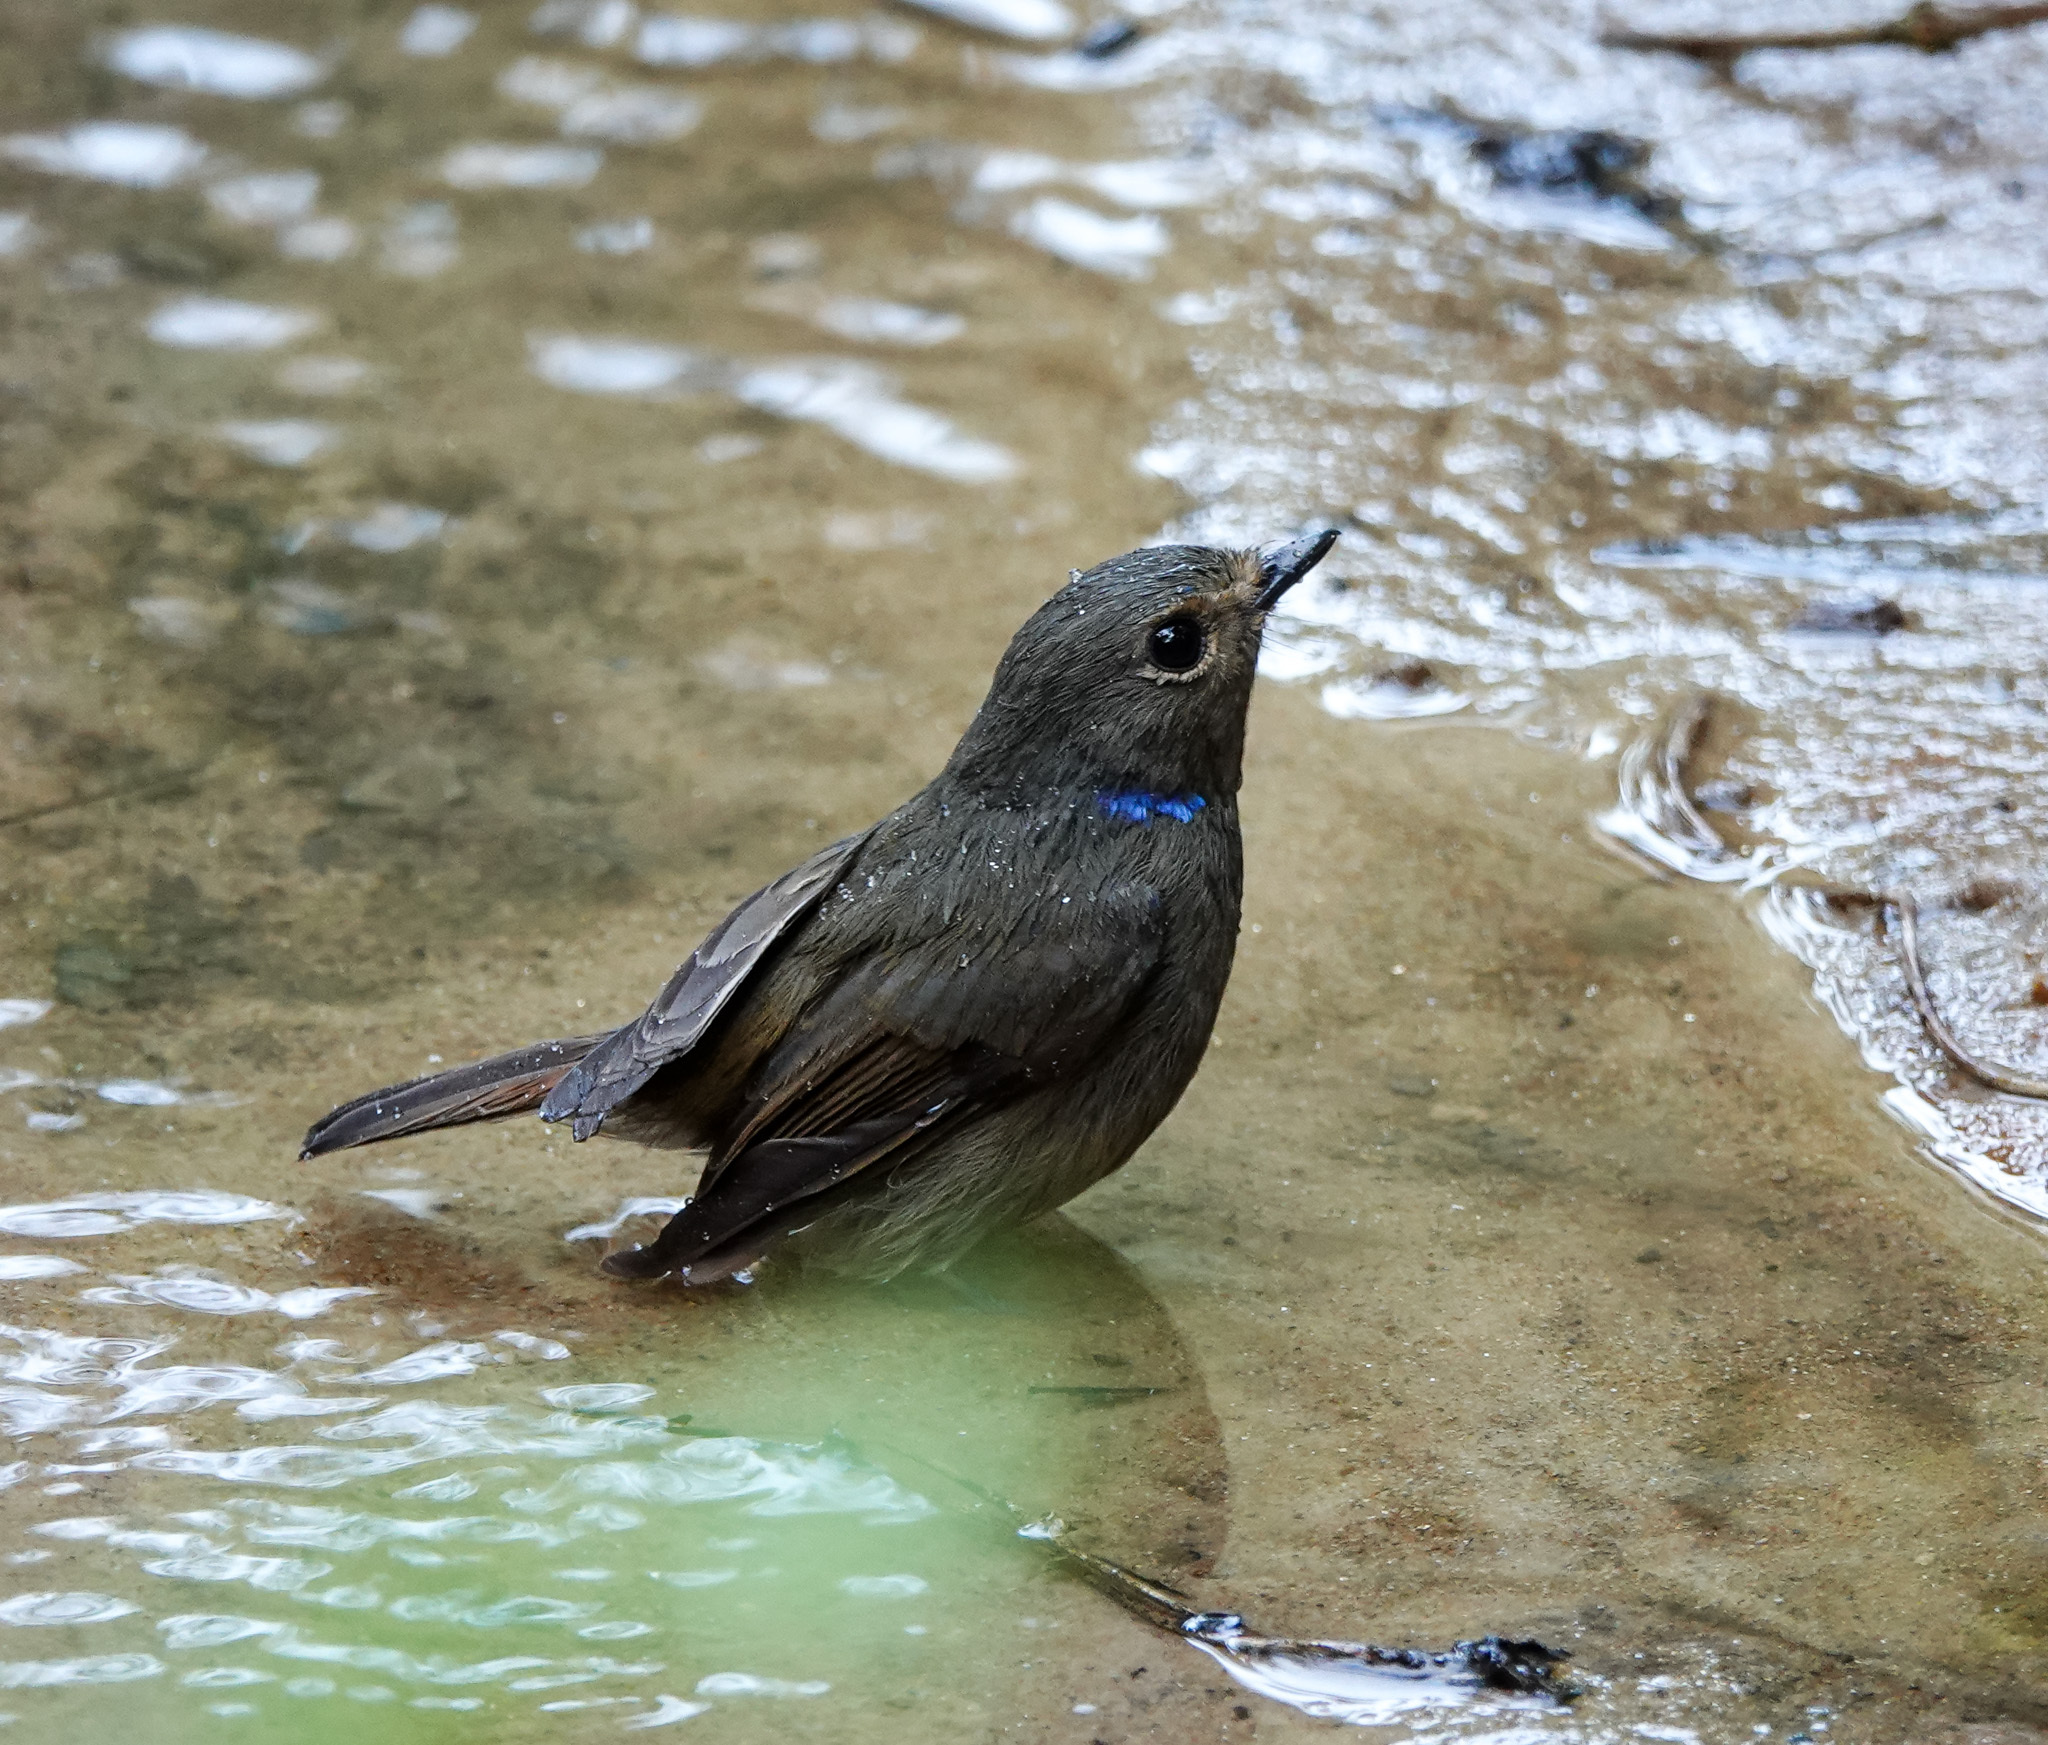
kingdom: Animalia
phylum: Chordata
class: Aves
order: Passeriformes
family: Muscicapidae
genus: Niltava
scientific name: Niltava macgrigoriae
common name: Small niltava
